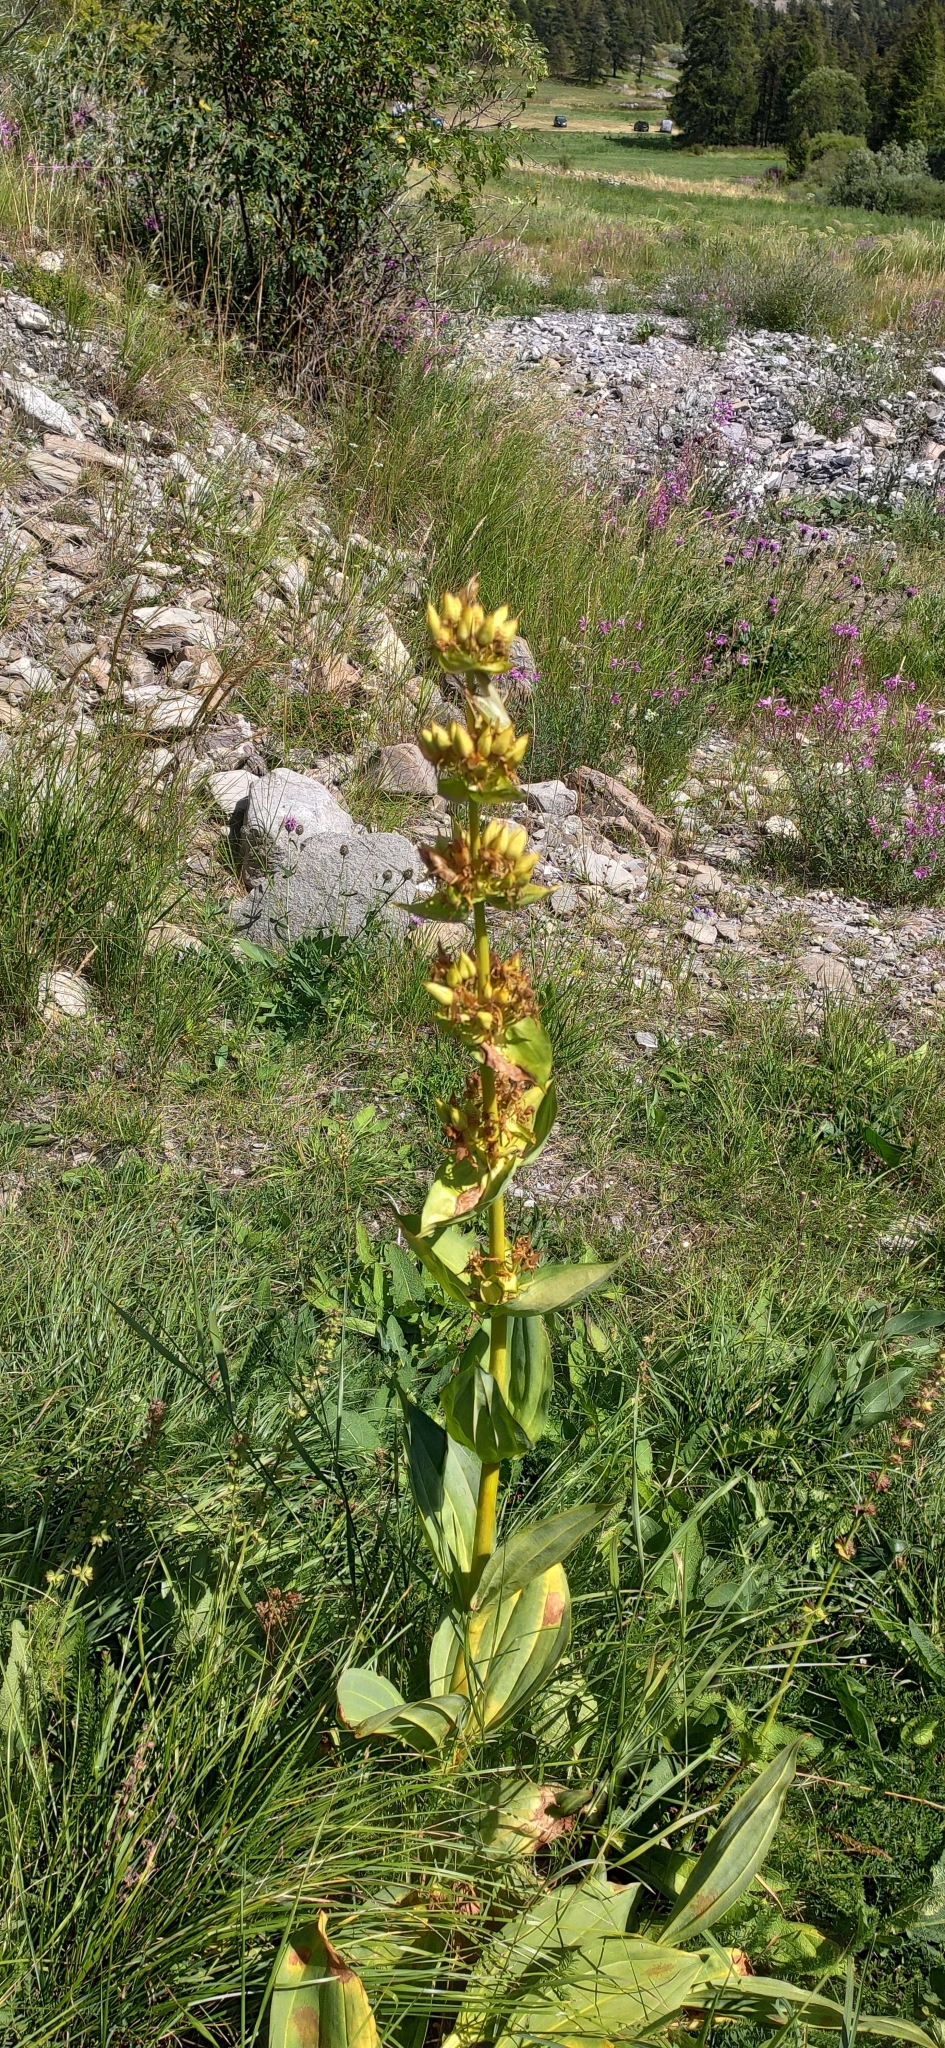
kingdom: Plantae
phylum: Tracheophyta
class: Magnoliopsida
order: Gentianales
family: Gentianaceae
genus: Gentiana
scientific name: Gentiana lutea
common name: Great yellow gentian
